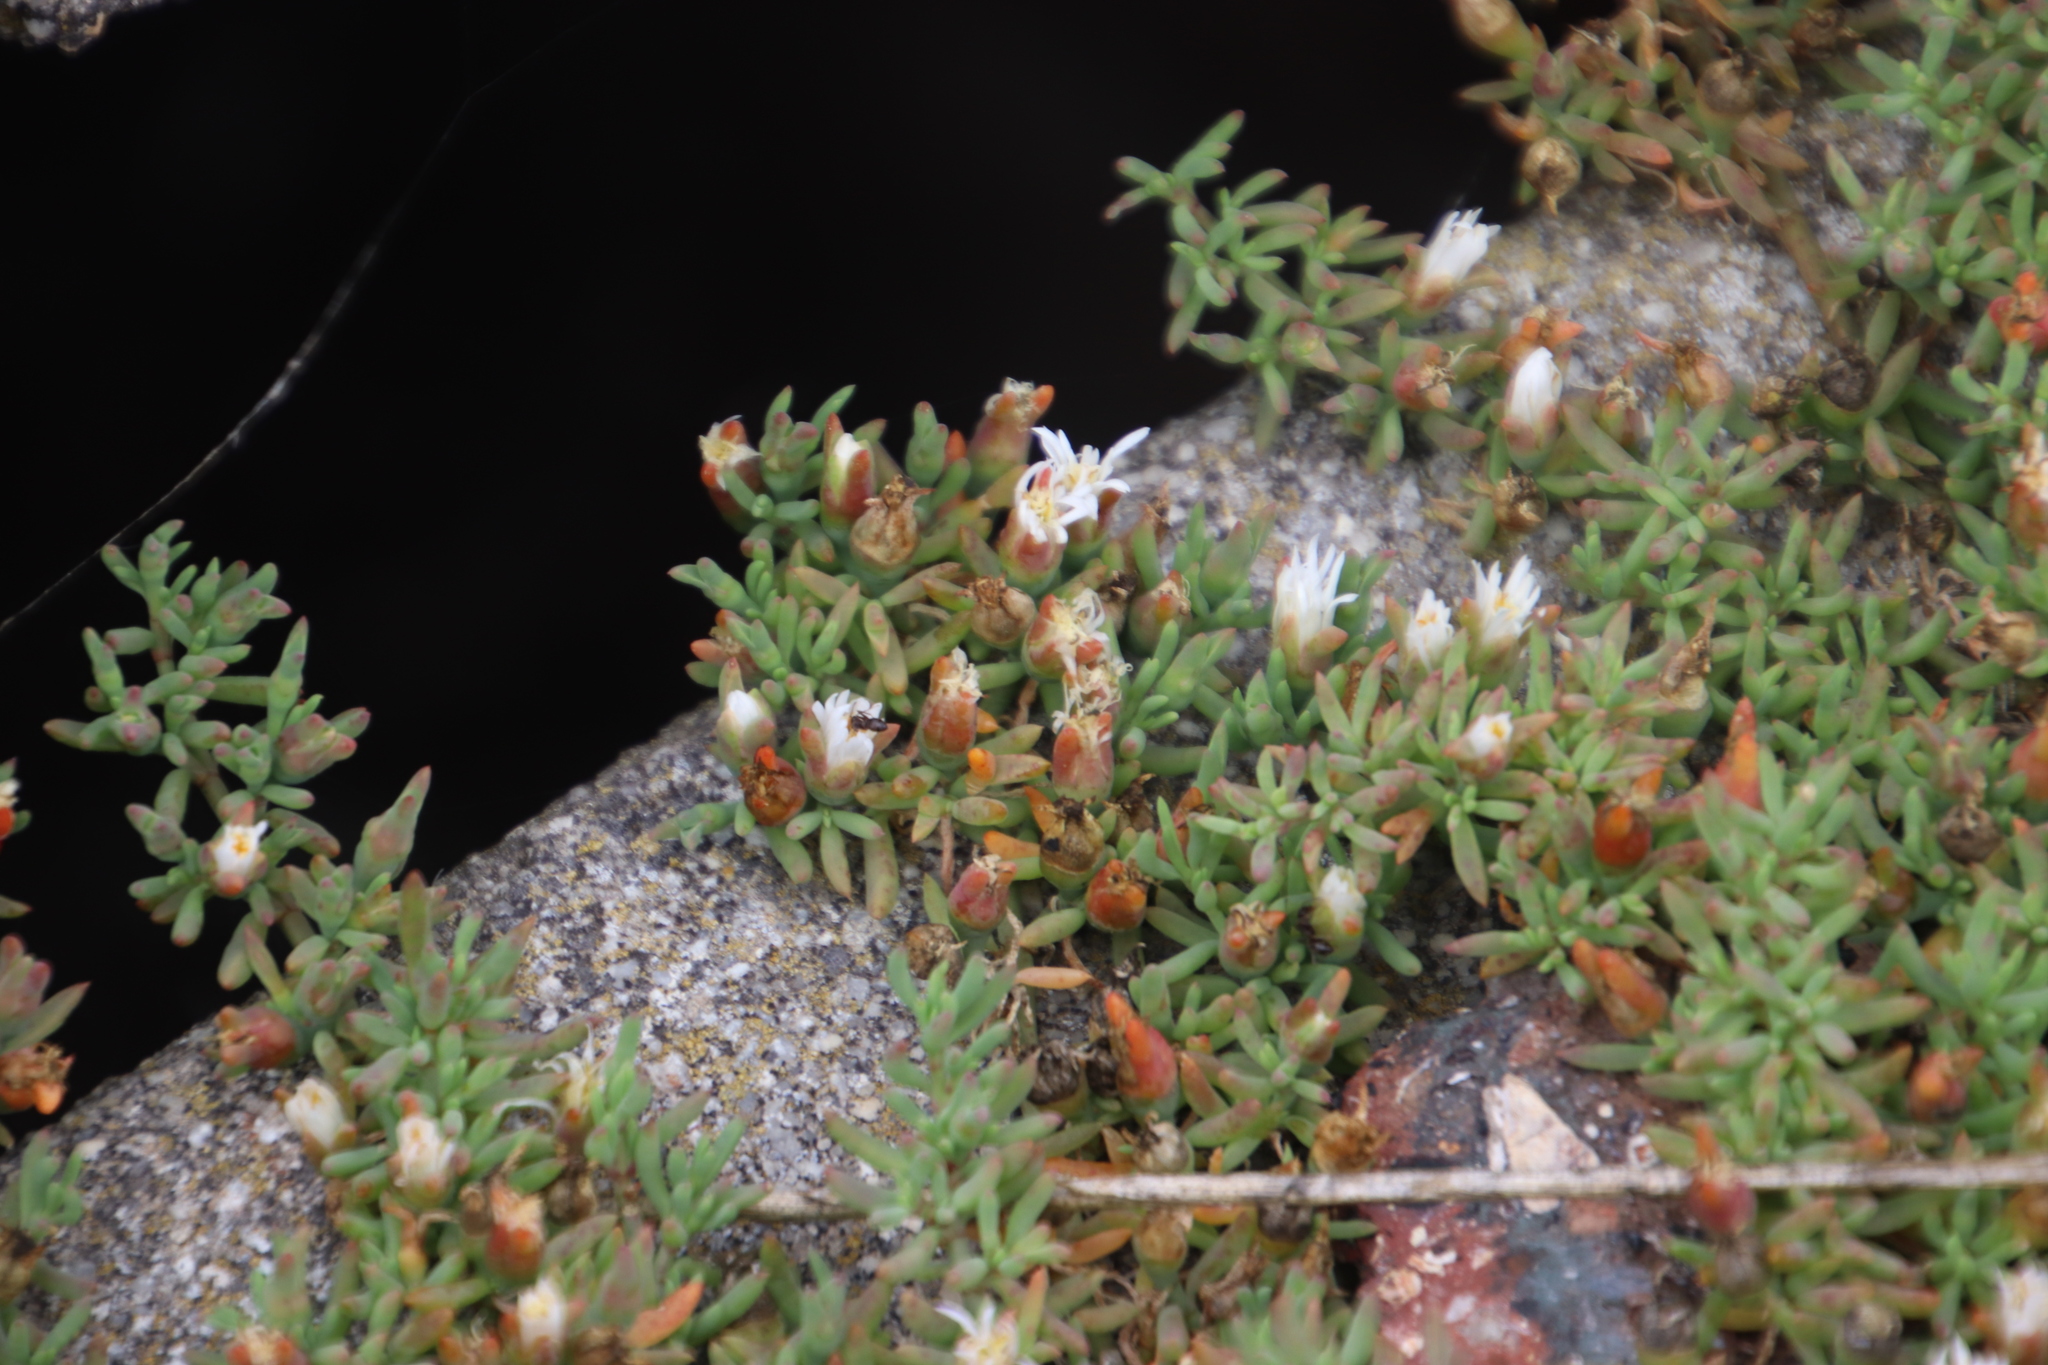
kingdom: Plantae
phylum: Tracheophyta
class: Magnoliopsida
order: Caryophyllales
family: Aizoaceae
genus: Mesembryanthemum
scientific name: Mesembryanthemum parviflorum
